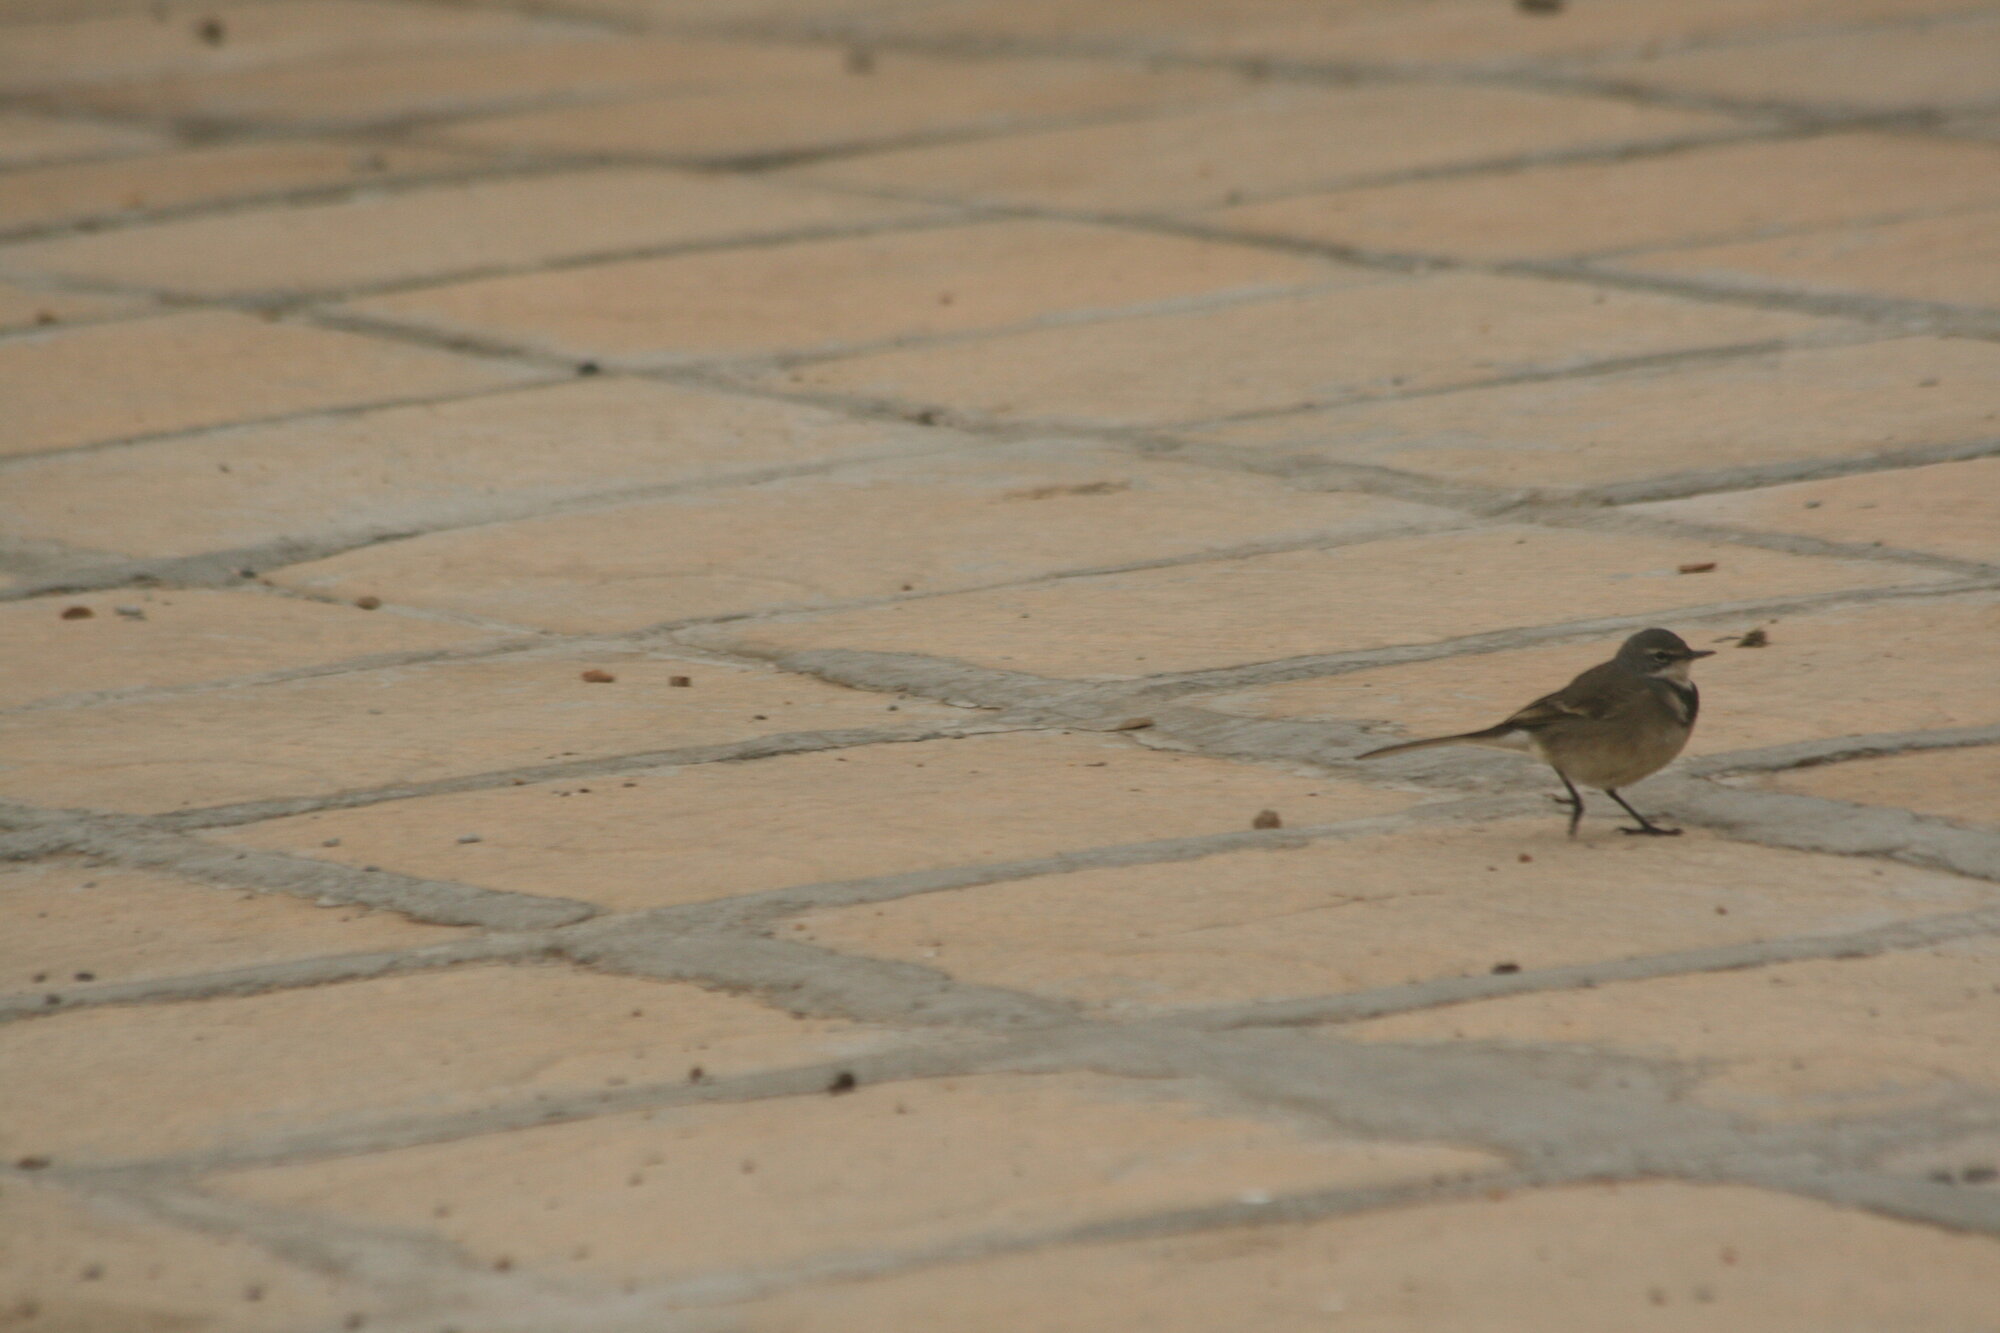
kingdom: Animalia
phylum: Chordata
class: Aves
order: Passeriformes
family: Motacillidae
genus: Motacilla
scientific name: Motacilla capensis
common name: Cape wagtail
